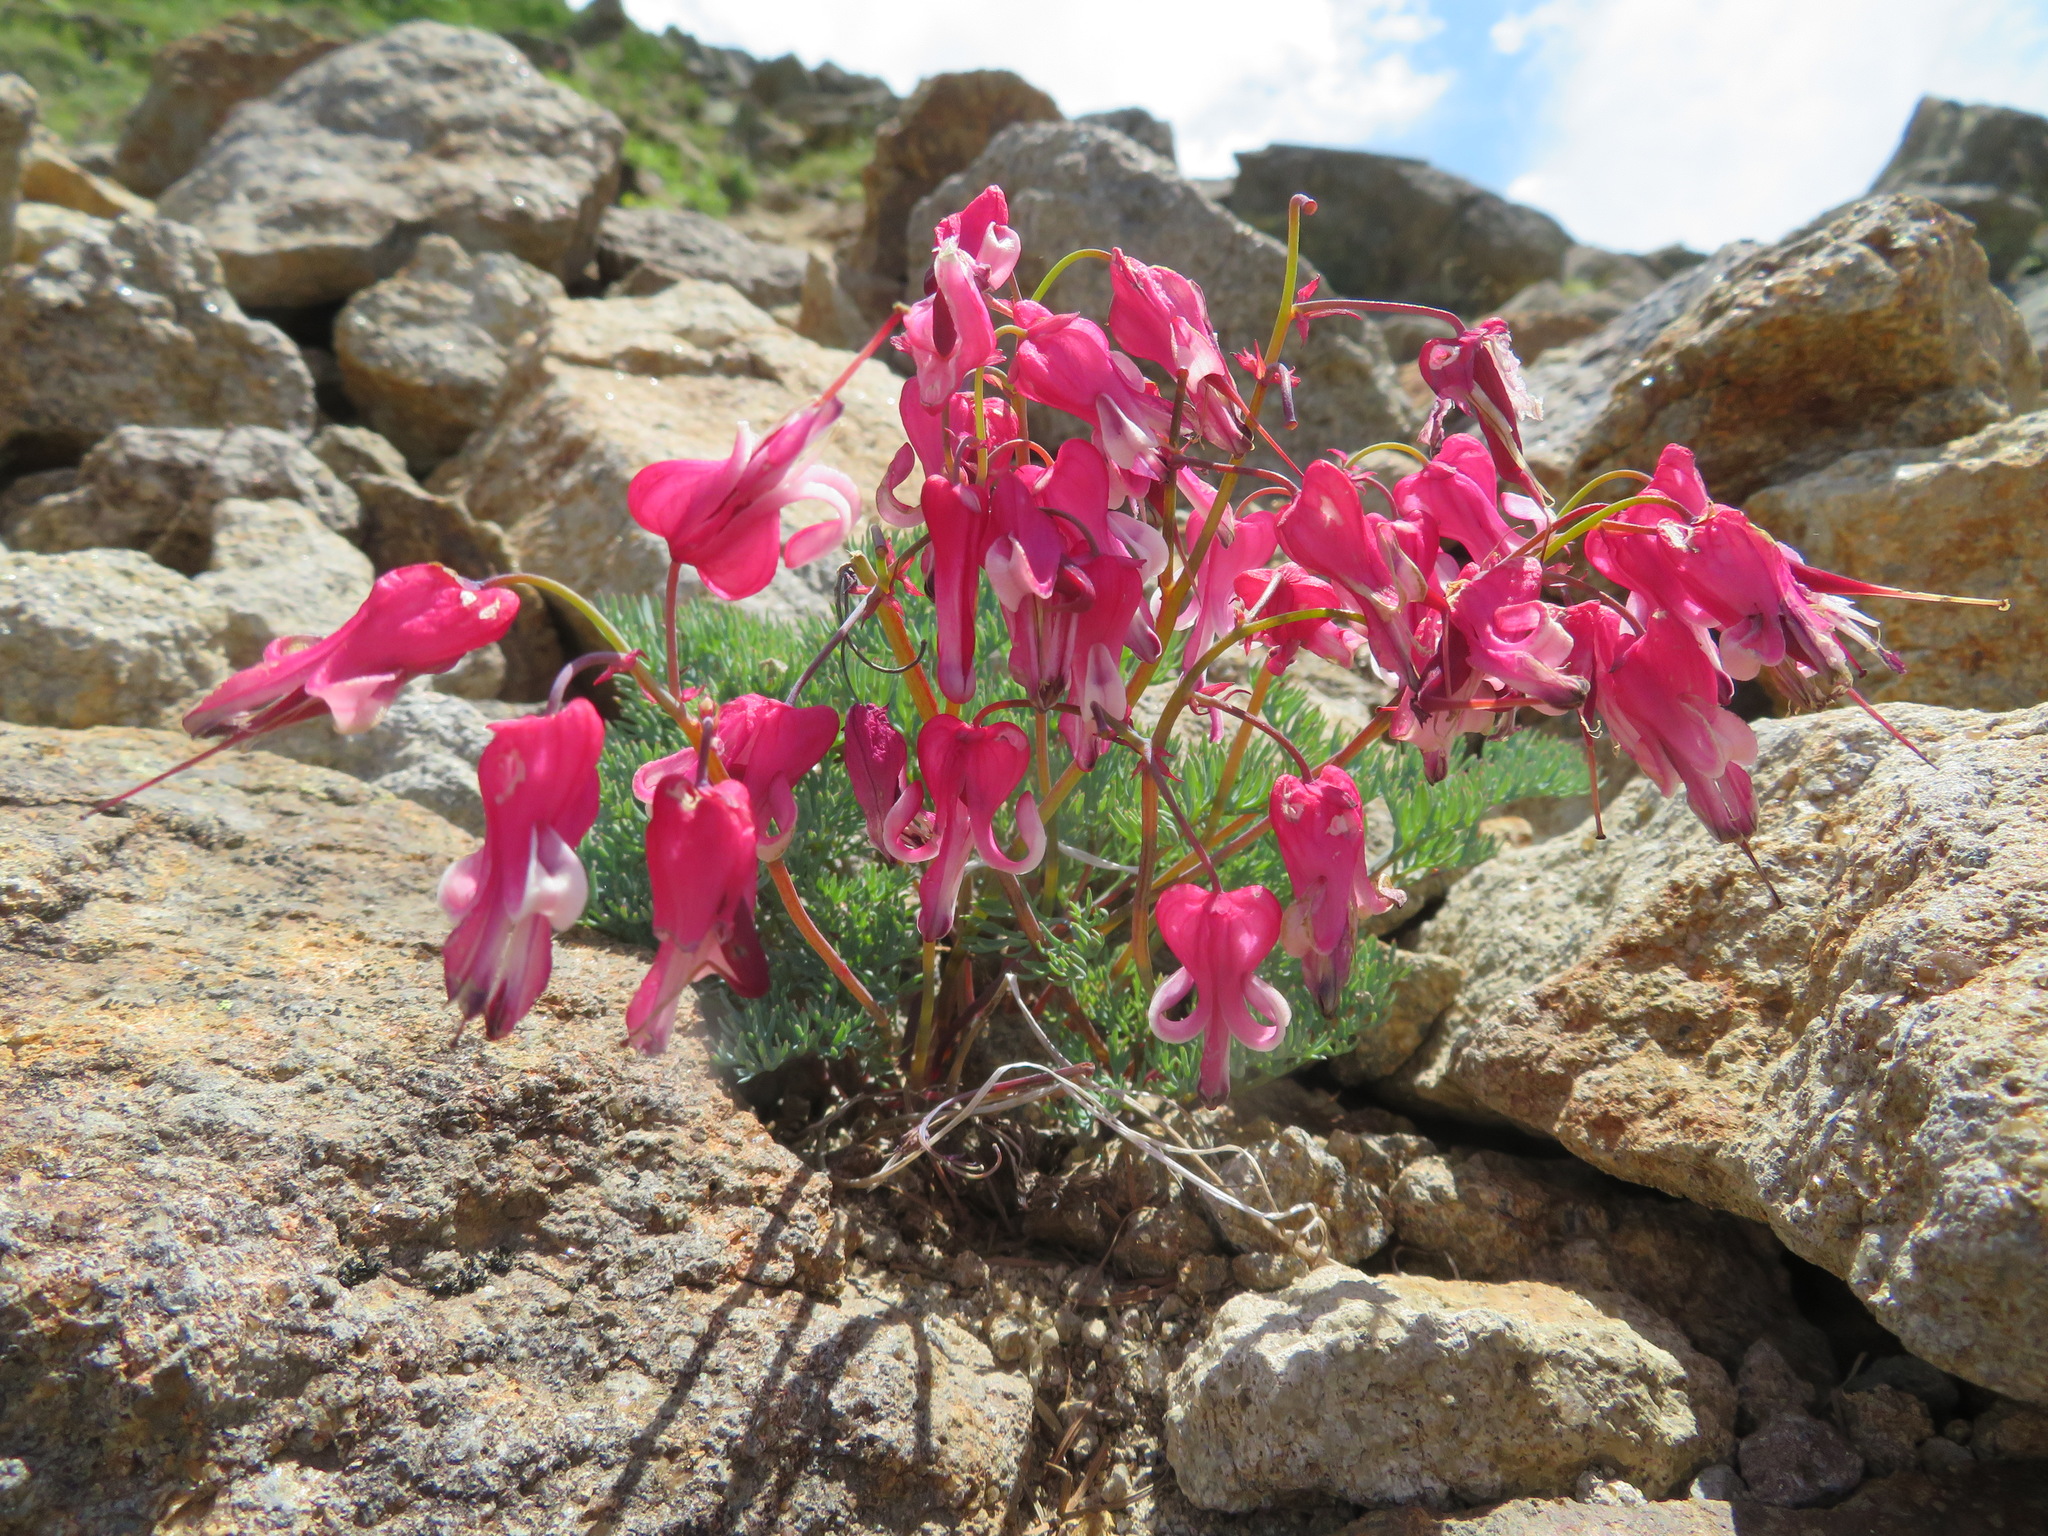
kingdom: Plantae
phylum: Tracheophyta
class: Magnoliopsida
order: Ranunculales
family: Papaveraceae
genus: Dicentra
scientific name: Dicentra peregrina
